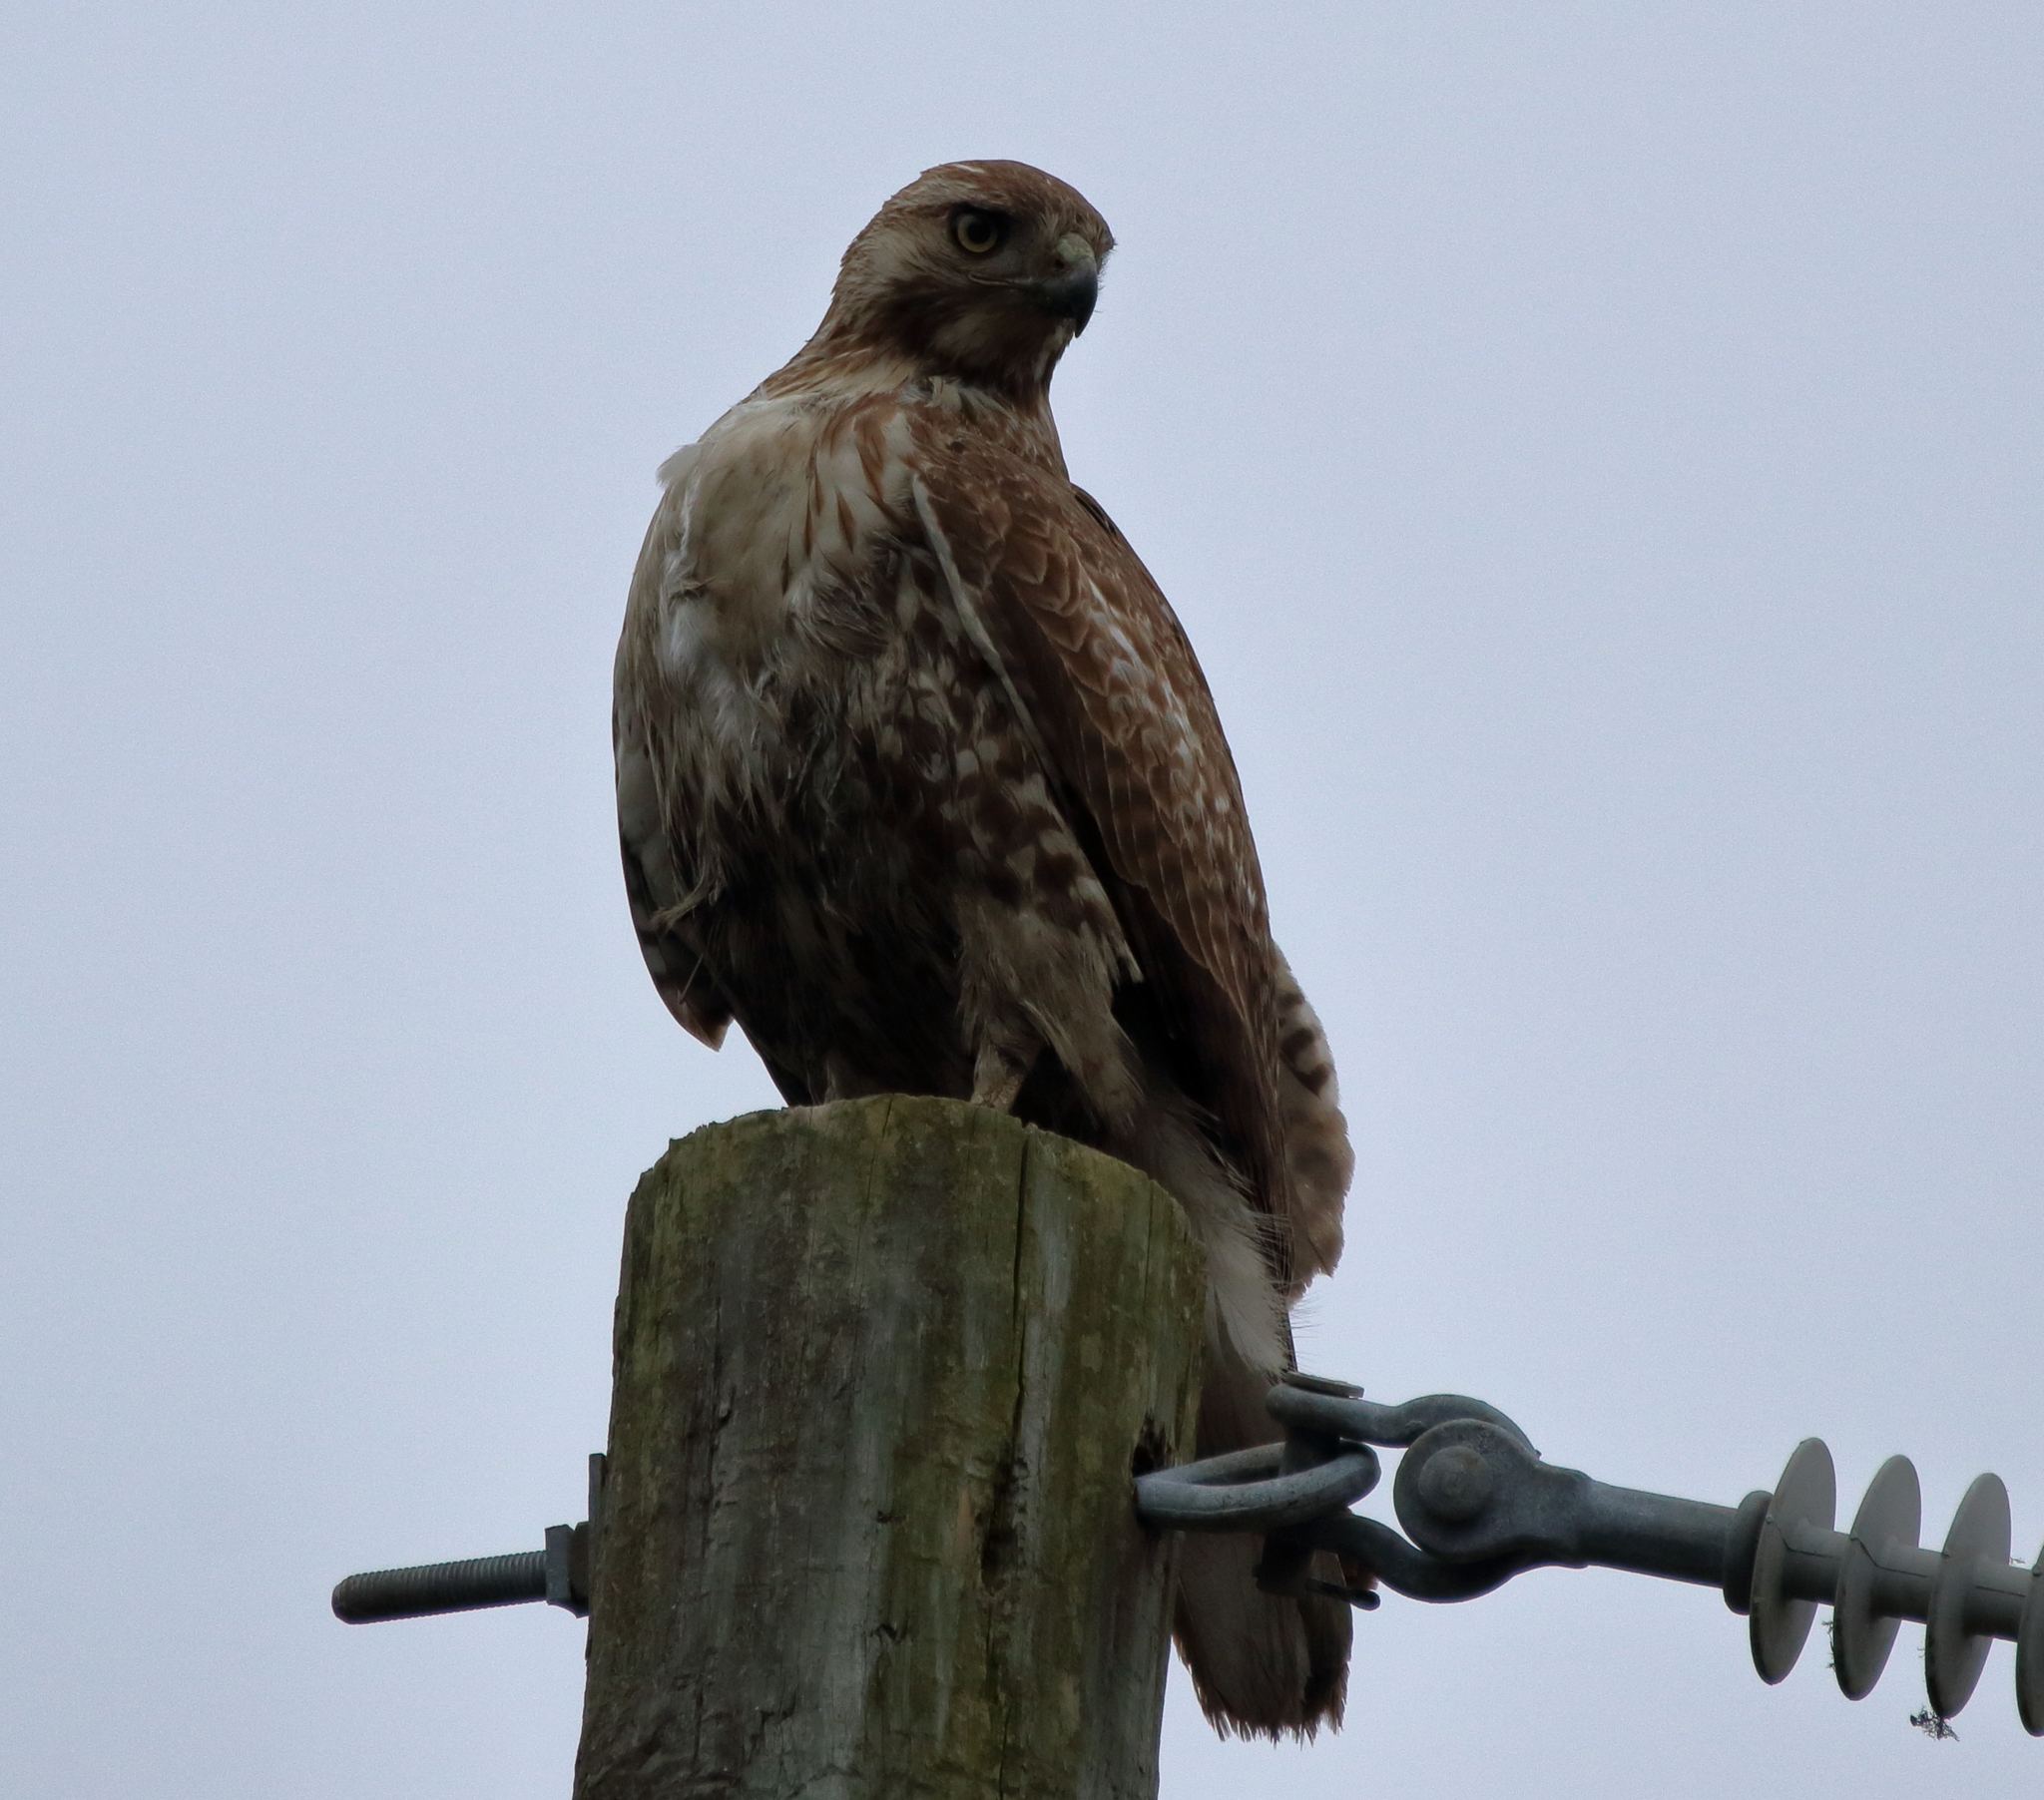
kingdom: Animalia
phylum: Chordata
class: Aves
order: Accipitriformes
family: Accipitridae
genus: Buteo
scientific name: Buteo jamaicensis
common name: Red-tailed hawk
